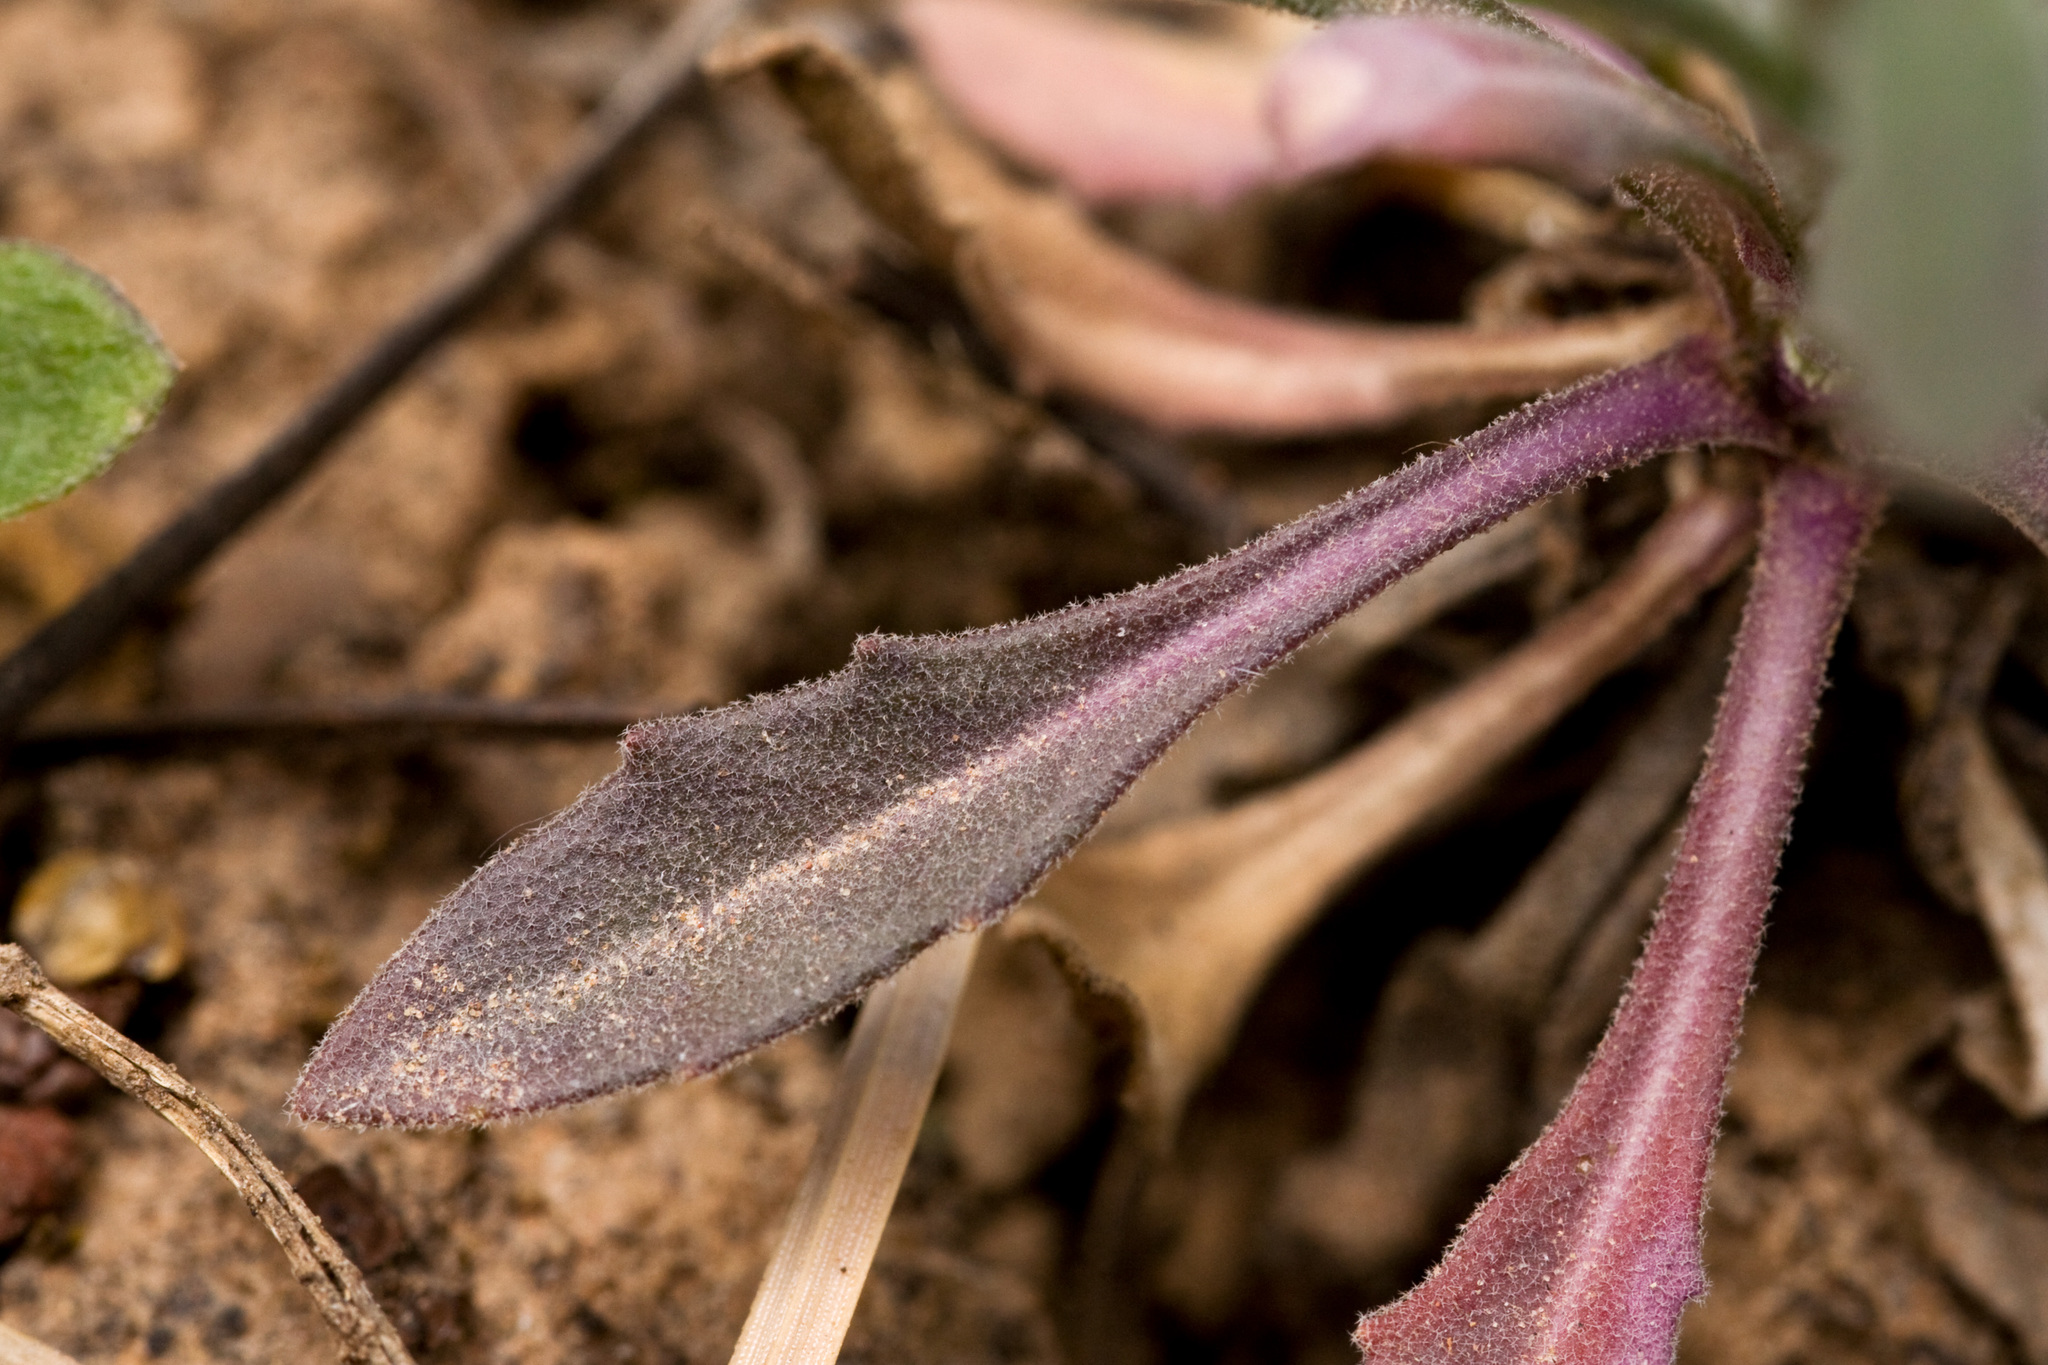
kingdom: Plantae
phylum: Tracheophyta
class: Magnoliopsida
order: Brassicales
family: Brassicaceae
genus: Boechera
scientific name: Boechera consanguinea
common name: Four corners rockcress
